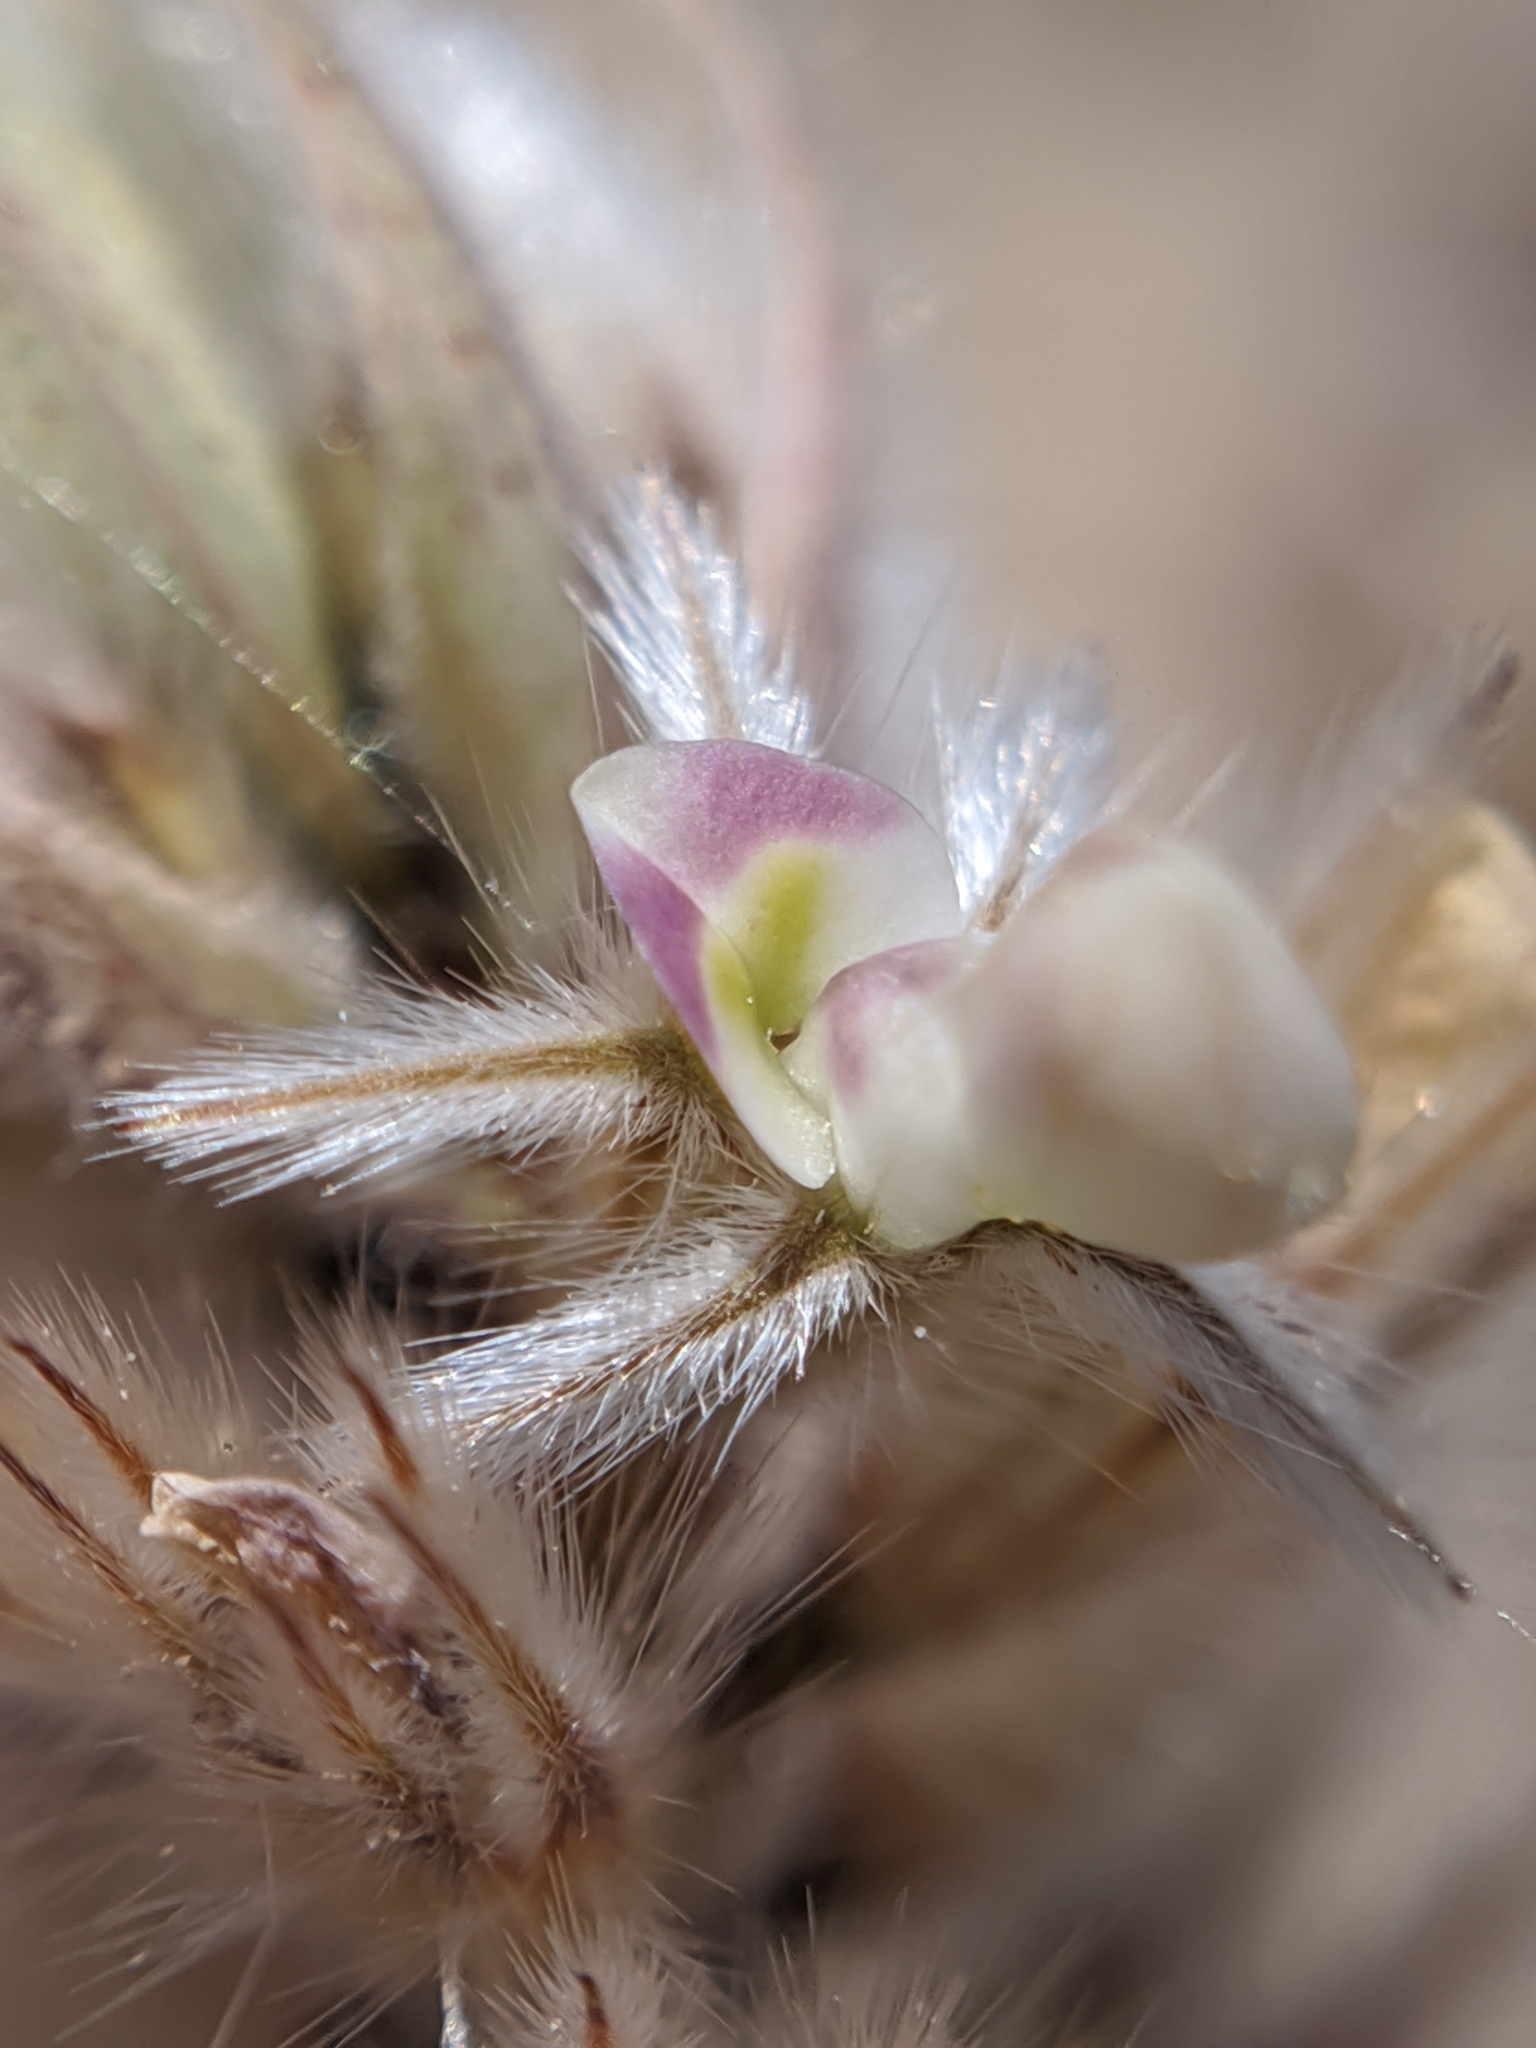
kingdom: Plantae
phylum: Tracheophyta
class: Magnoliopsida
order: Fabales
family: Fabaceae
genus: Dalea
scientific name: Dalea mollissima
